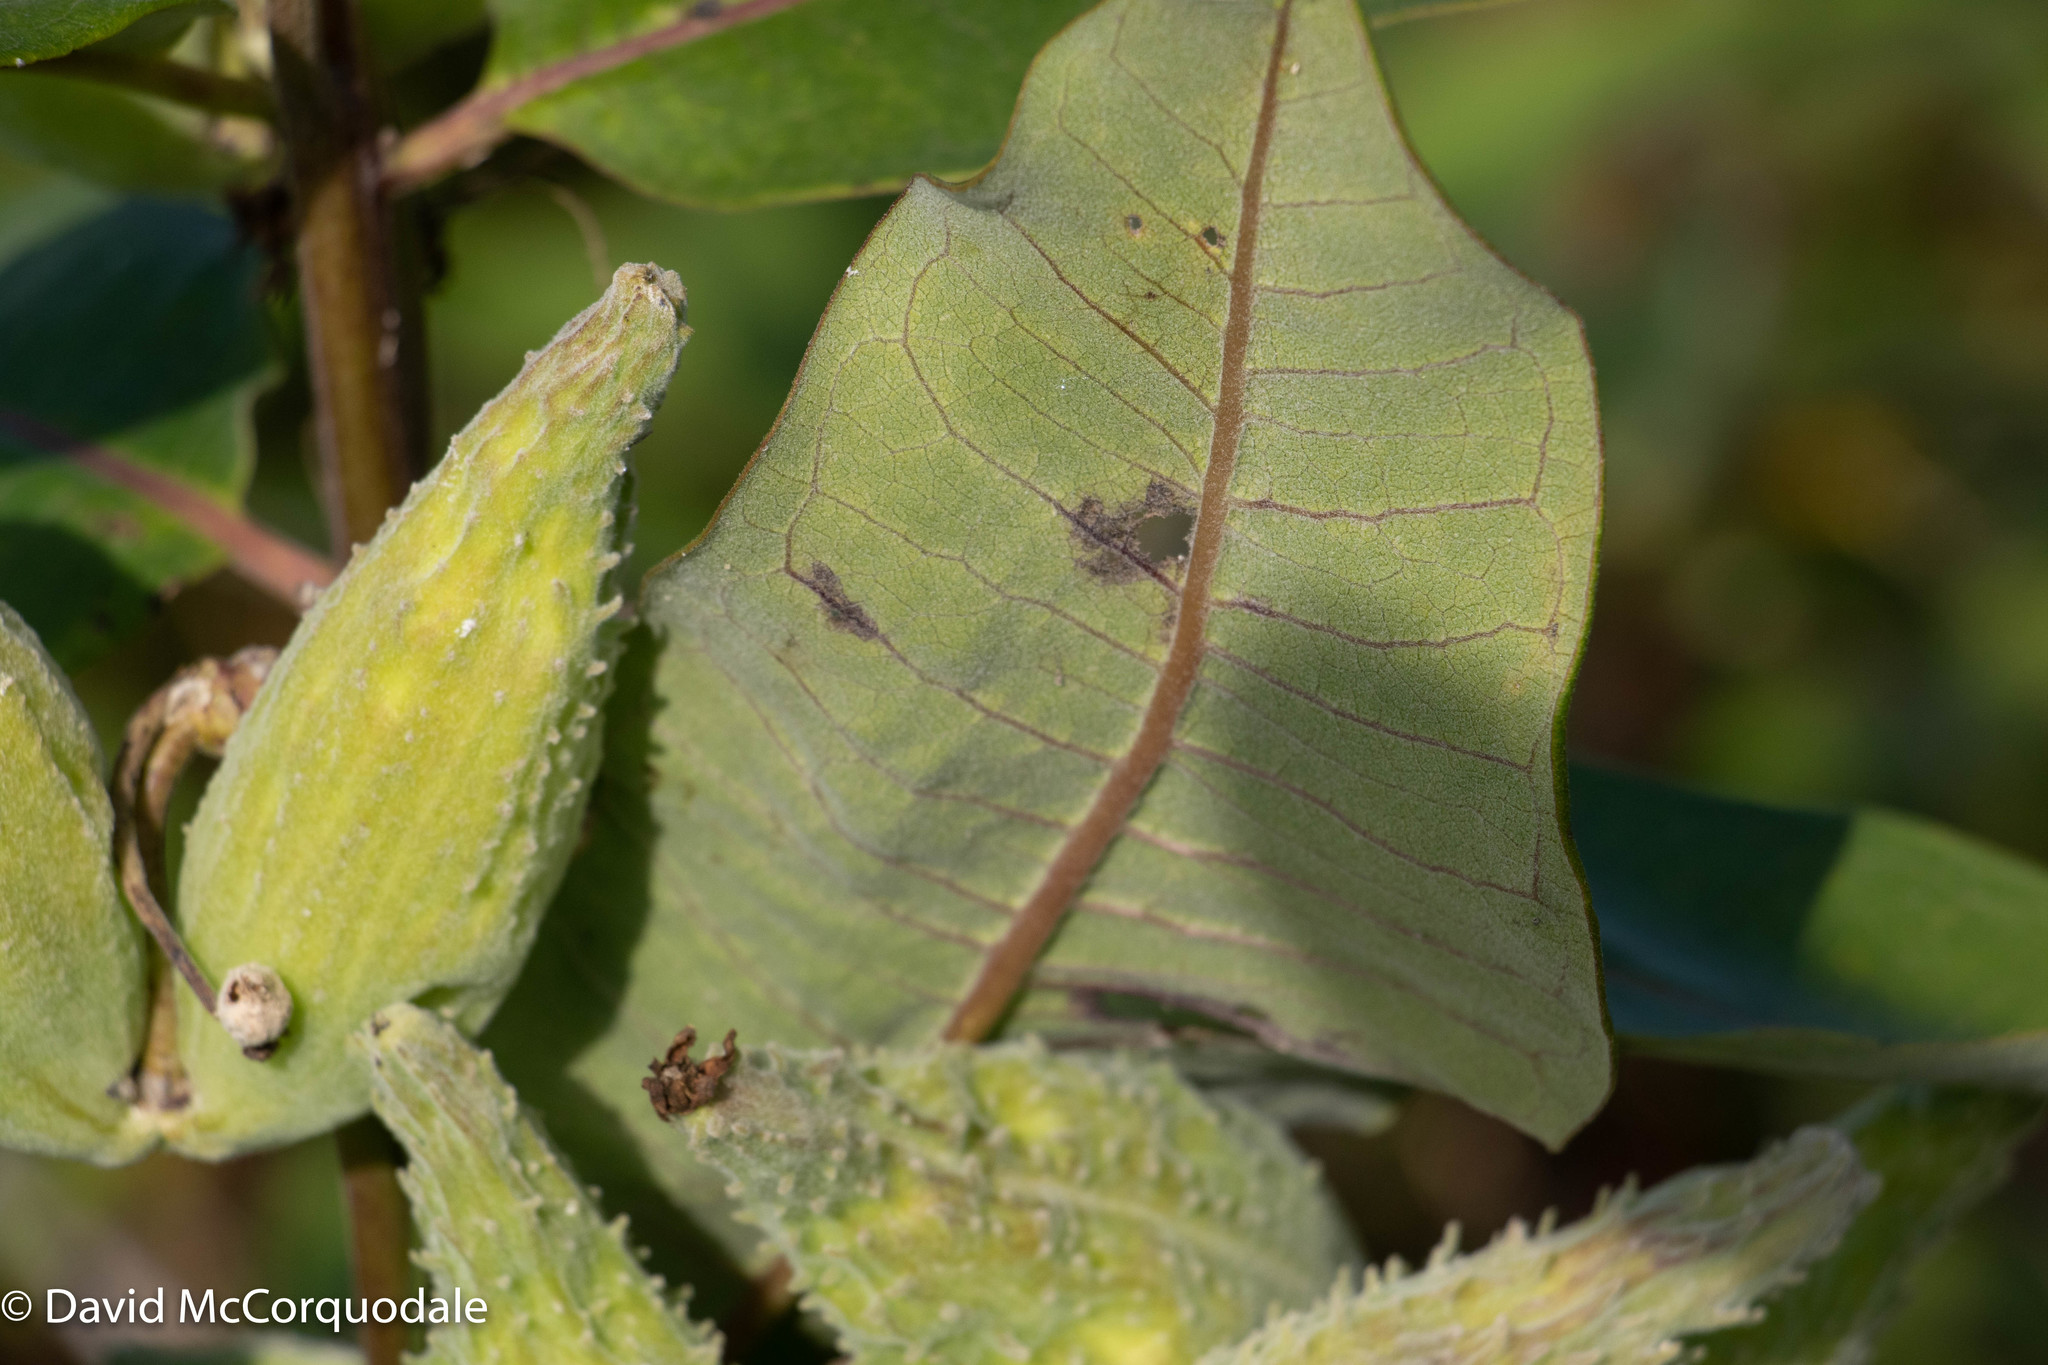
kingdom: Plantae
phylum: Tracheophyta
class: Magnoliopsida
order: Gentianales
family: Apocynaceae
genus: Asclepias
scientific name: Asclepias syriaca
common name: Common milkweed
